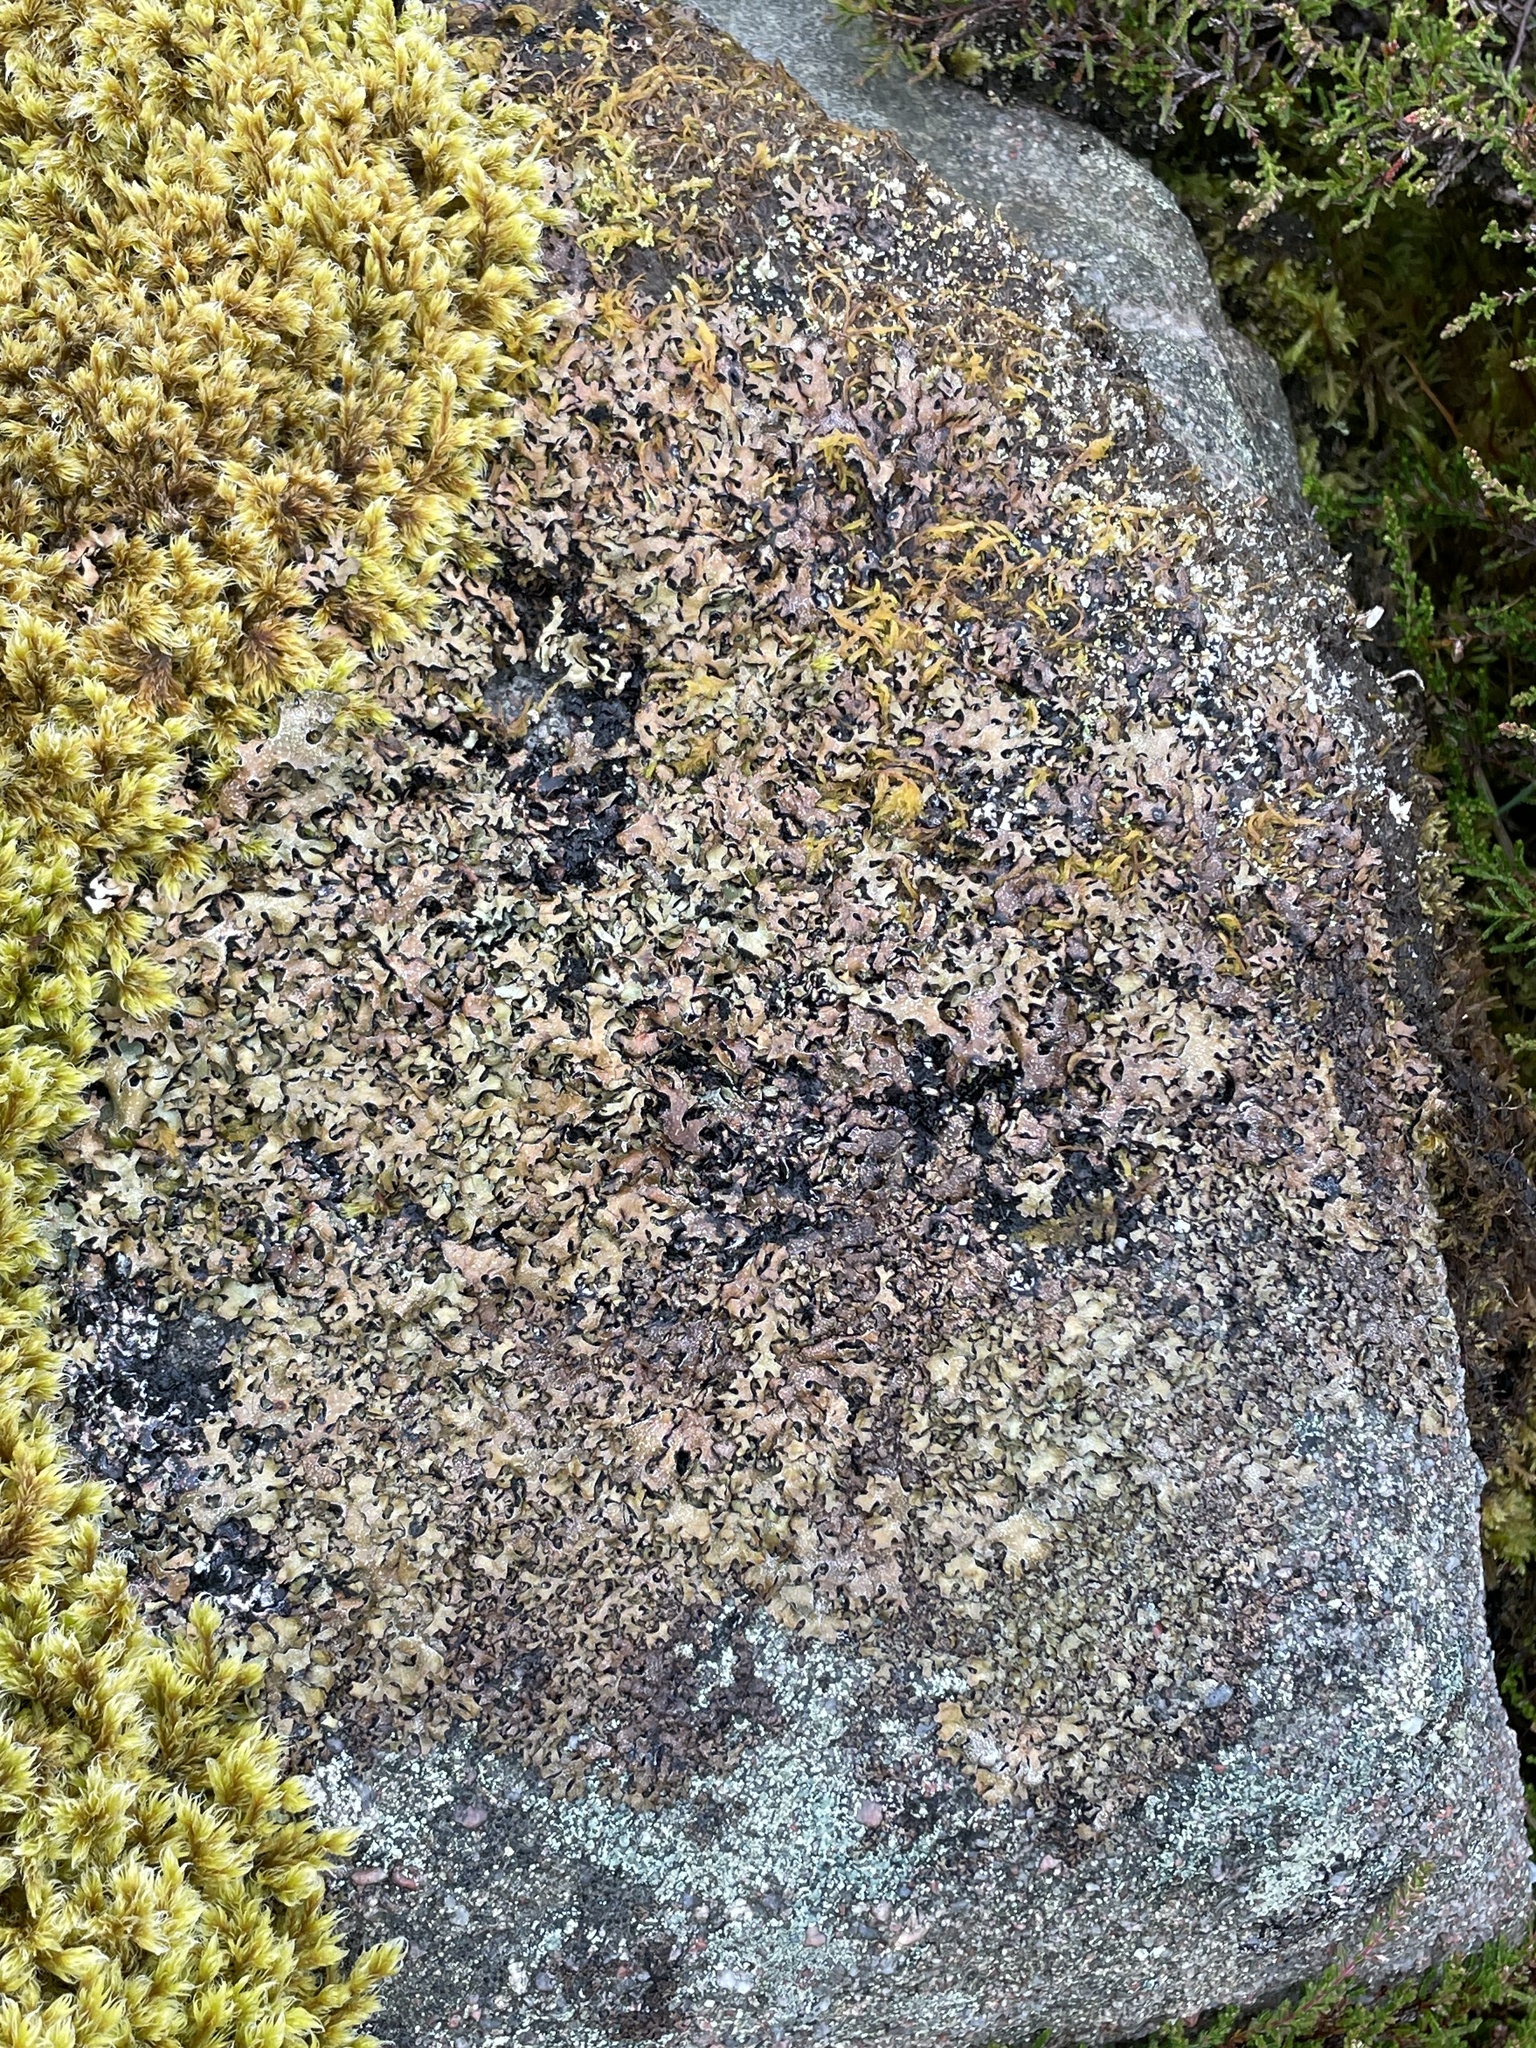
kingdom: Fungi
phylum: Ascomycota
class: Lecanoromycetes
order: Lecanorales
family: Parmeliaceae
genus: Parmelia
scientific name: Parmelia omphalodes
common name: Smoky crottle
